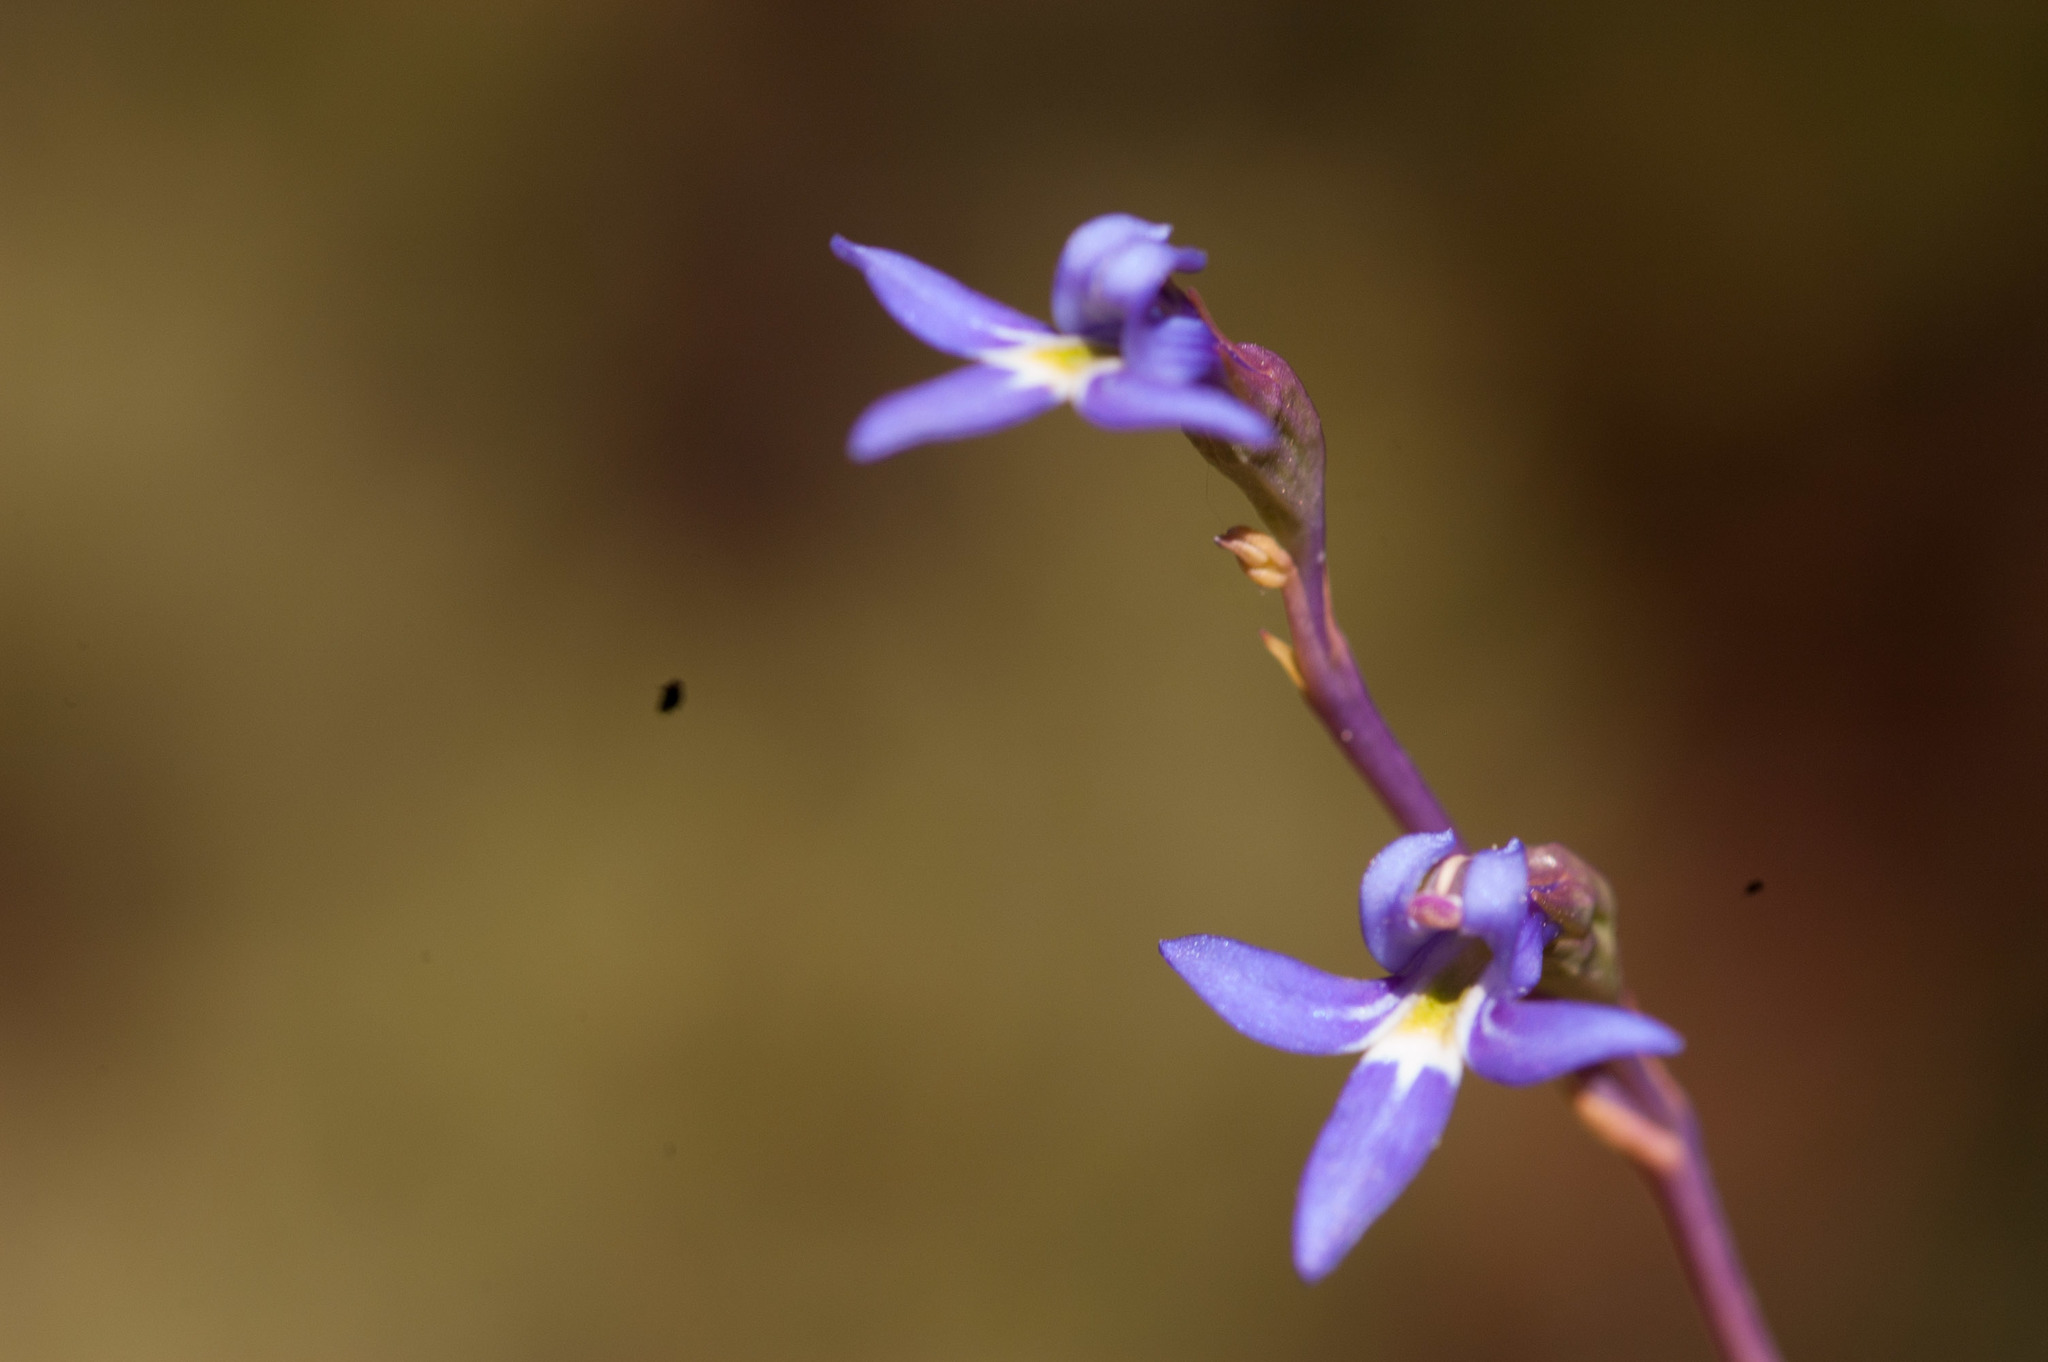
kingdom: Plantae
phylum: Tracheophyta
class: Magnoliopsida
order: Asterales
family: Campanulaceae
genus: Lobelia
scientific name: Lobelia gibbosa
